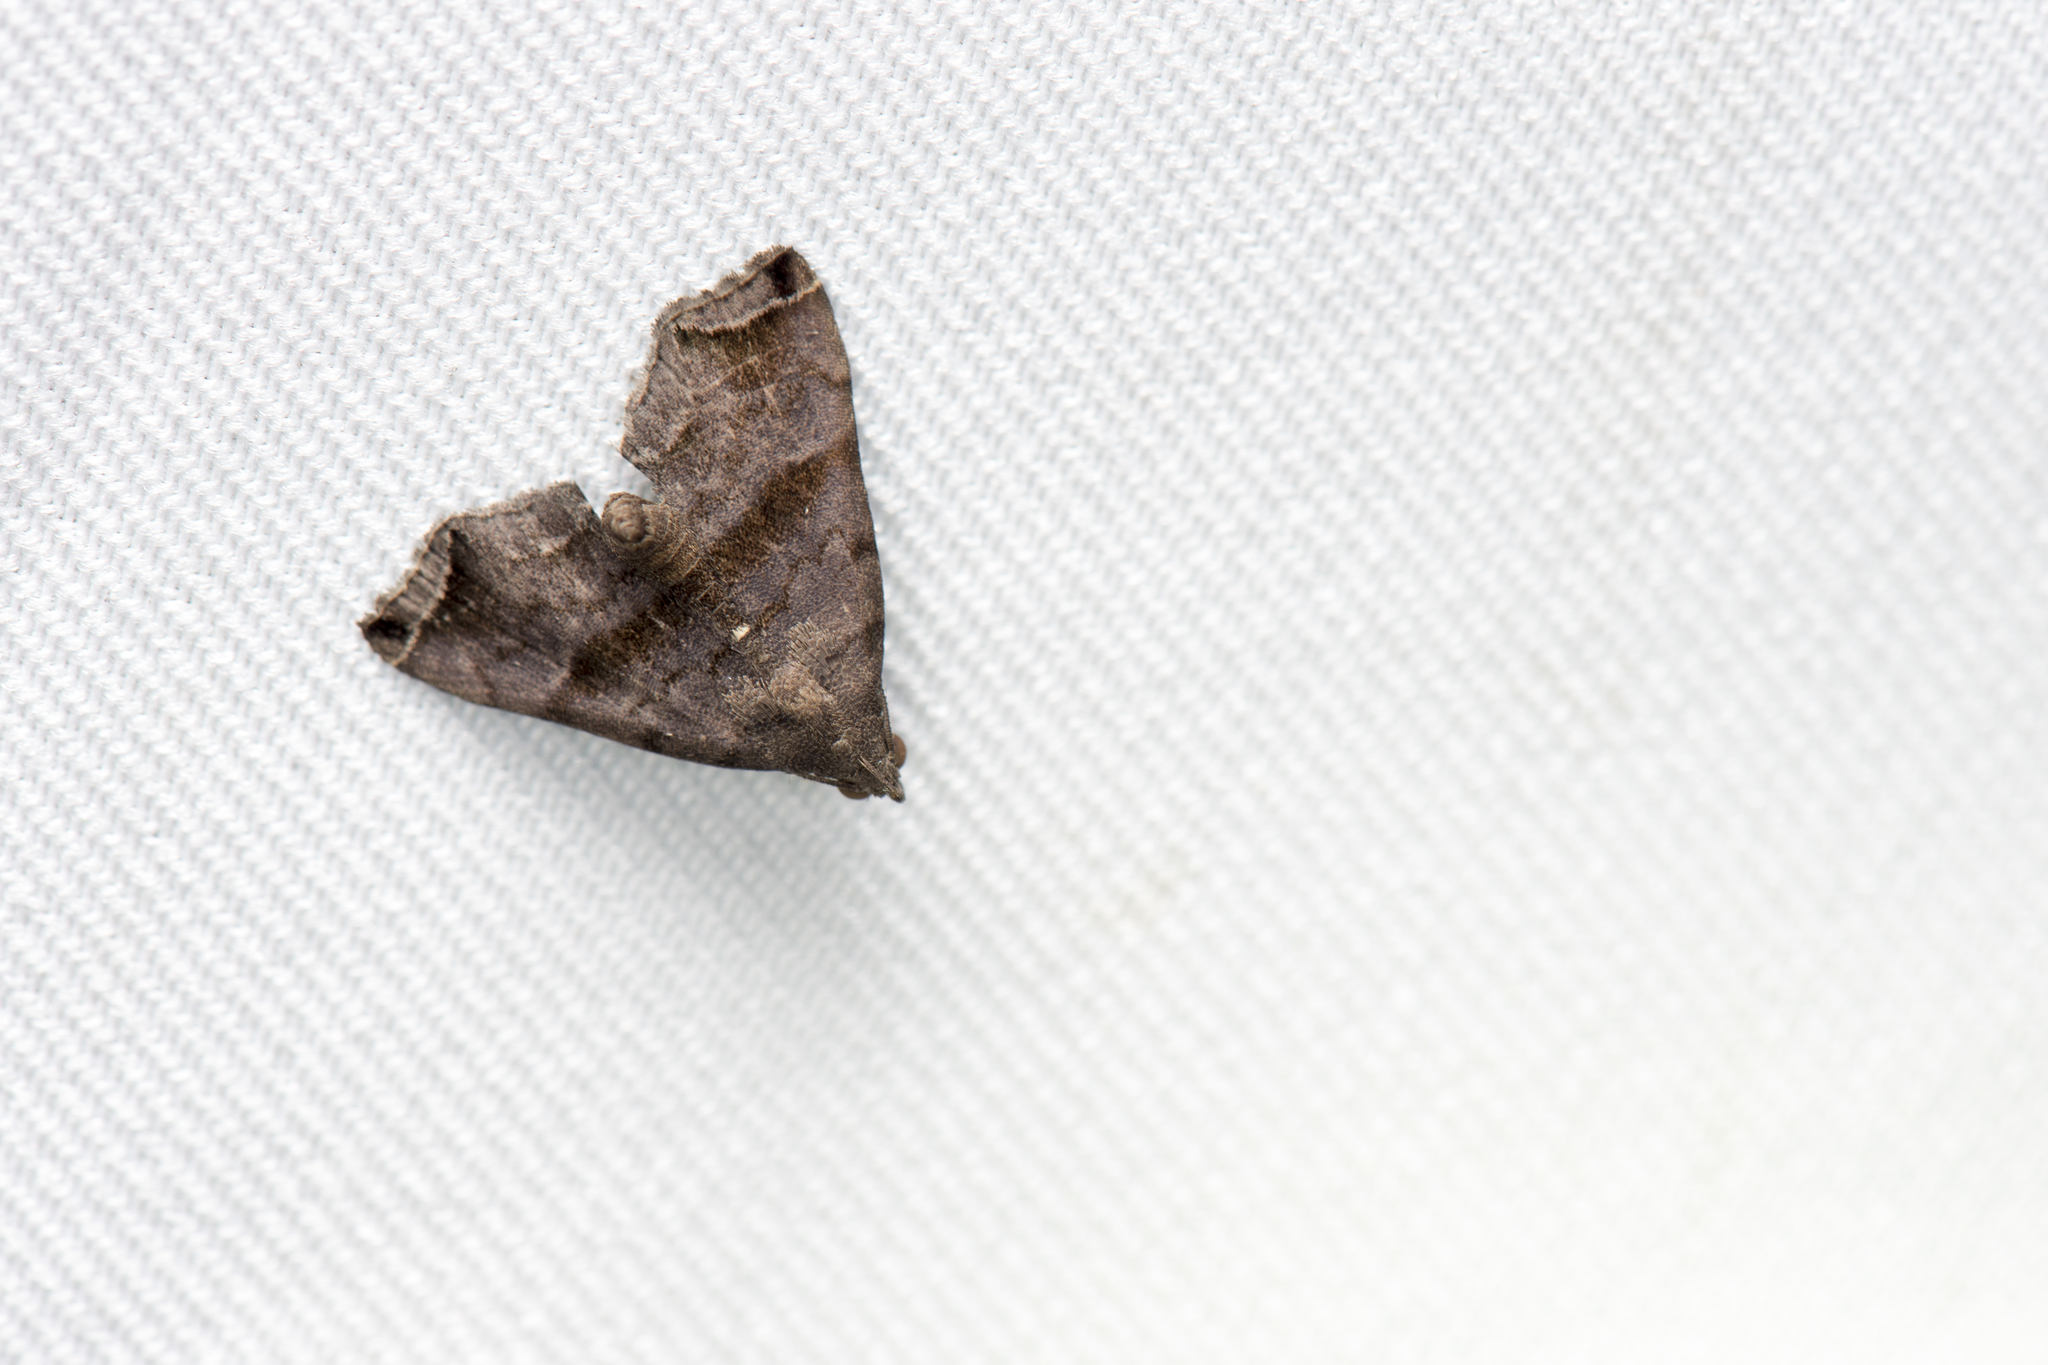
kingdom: Animalia
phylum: Arthropoda
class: Insecta
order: Lepidoptera
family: Erebidae
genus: Polypogon
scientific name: Polypogon biasalis
